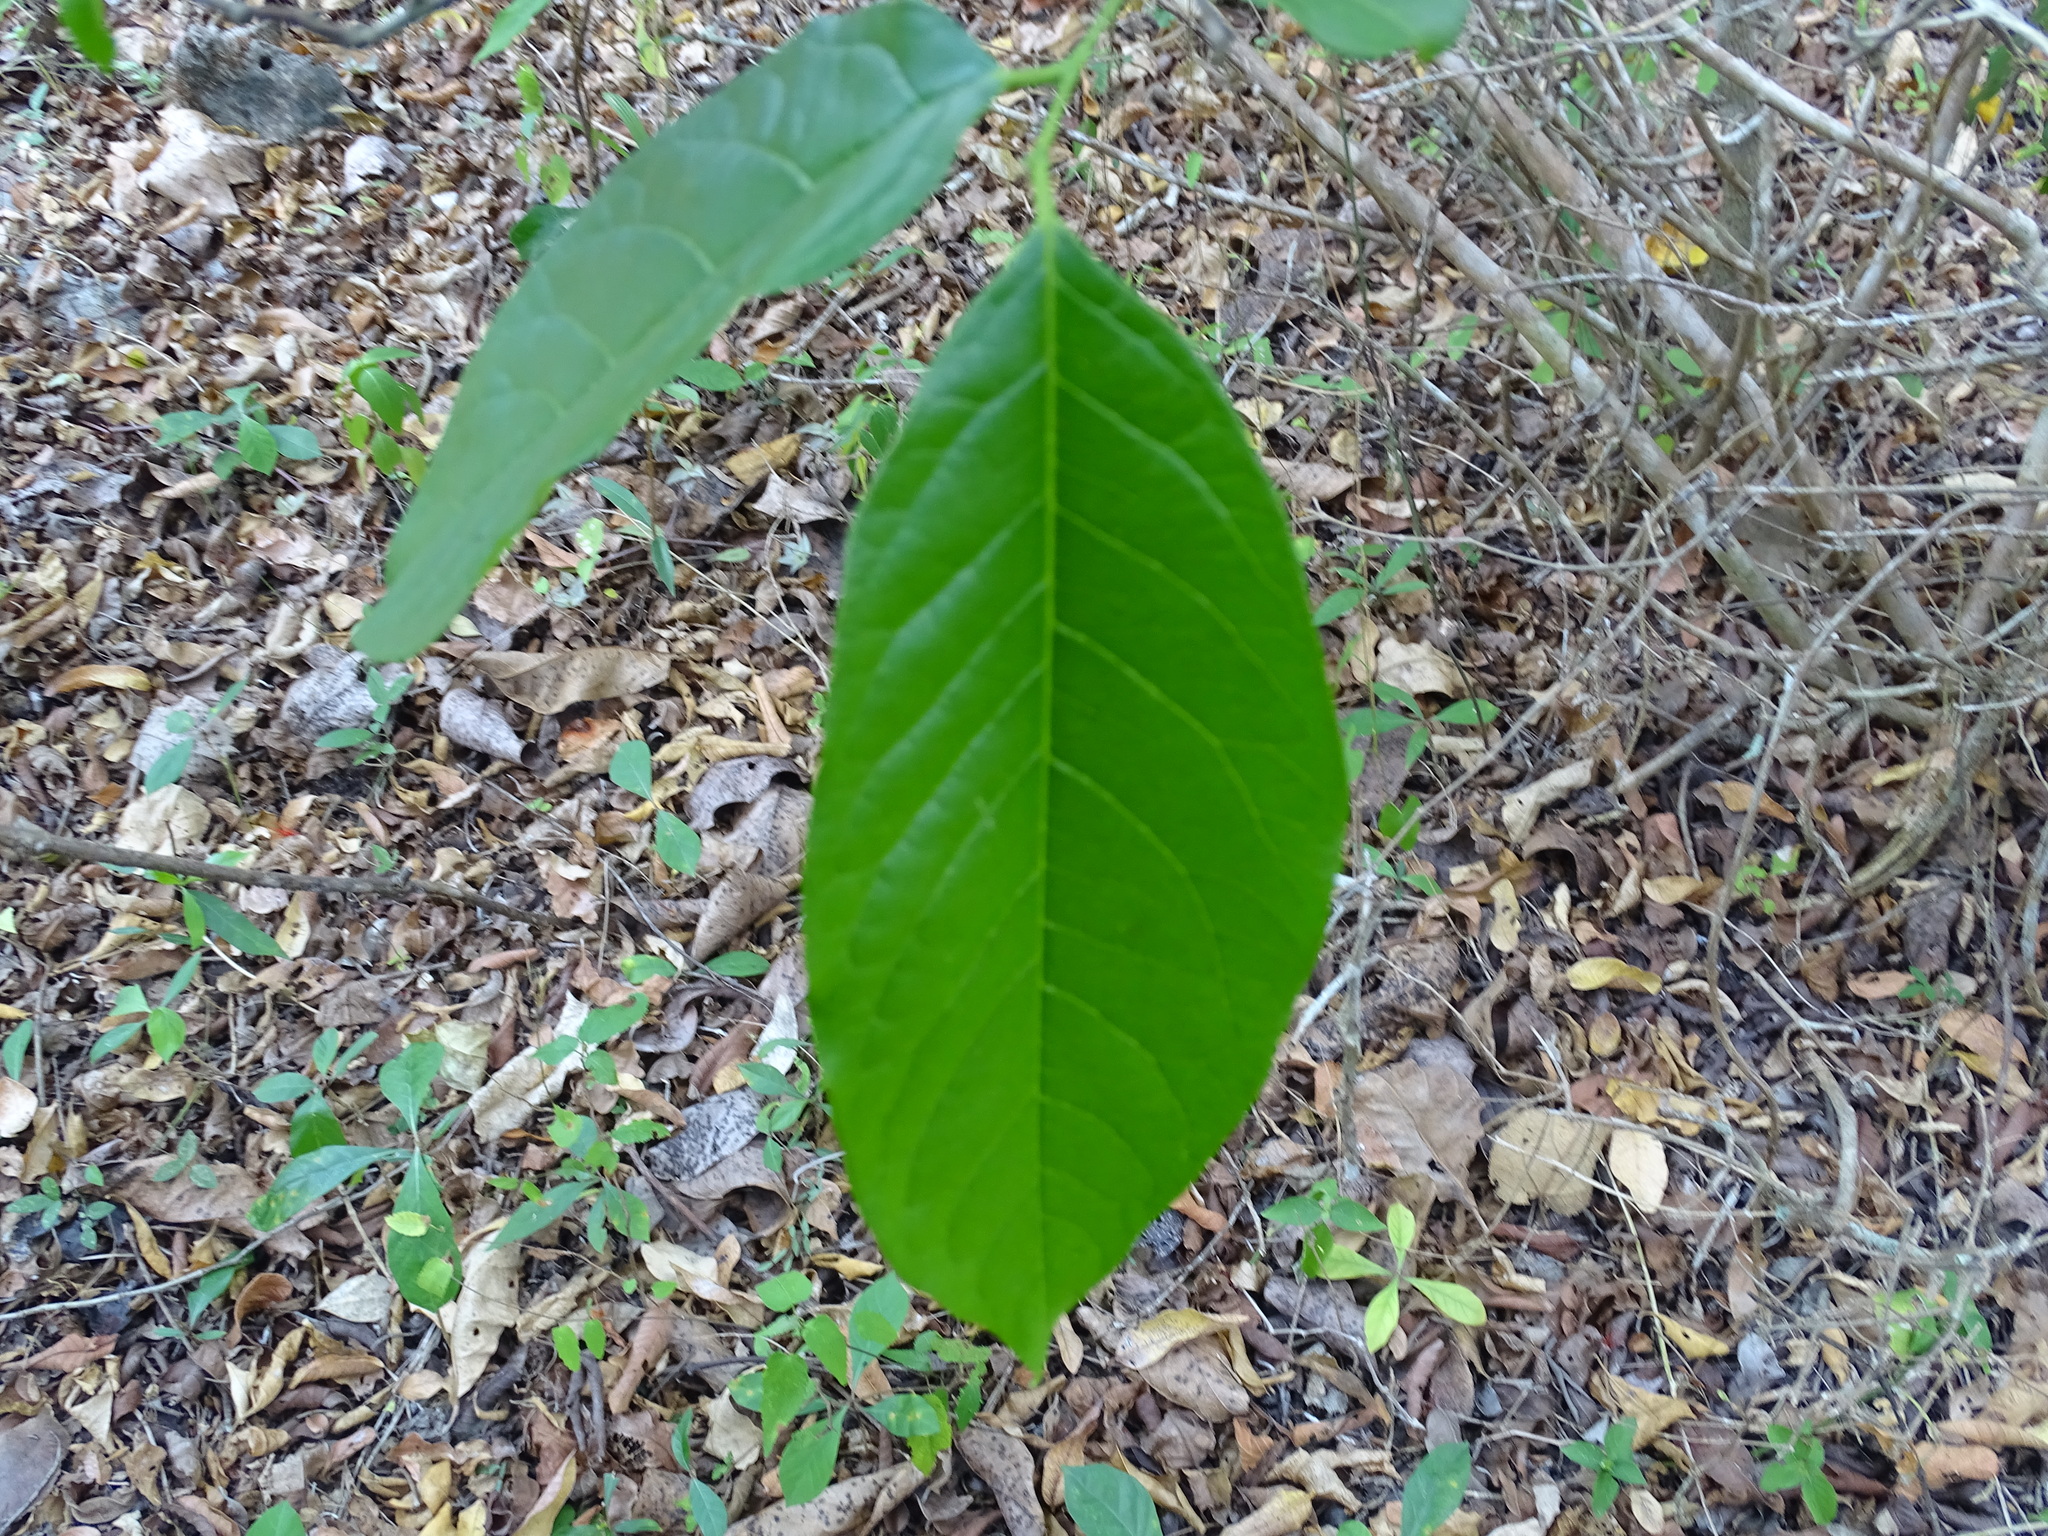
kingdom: Plantae
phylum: Tracheophyta
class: Magnoliopsida
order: Ericales
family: Ebenaceae
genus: Diospyros
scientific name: Diospyros yatesiana
